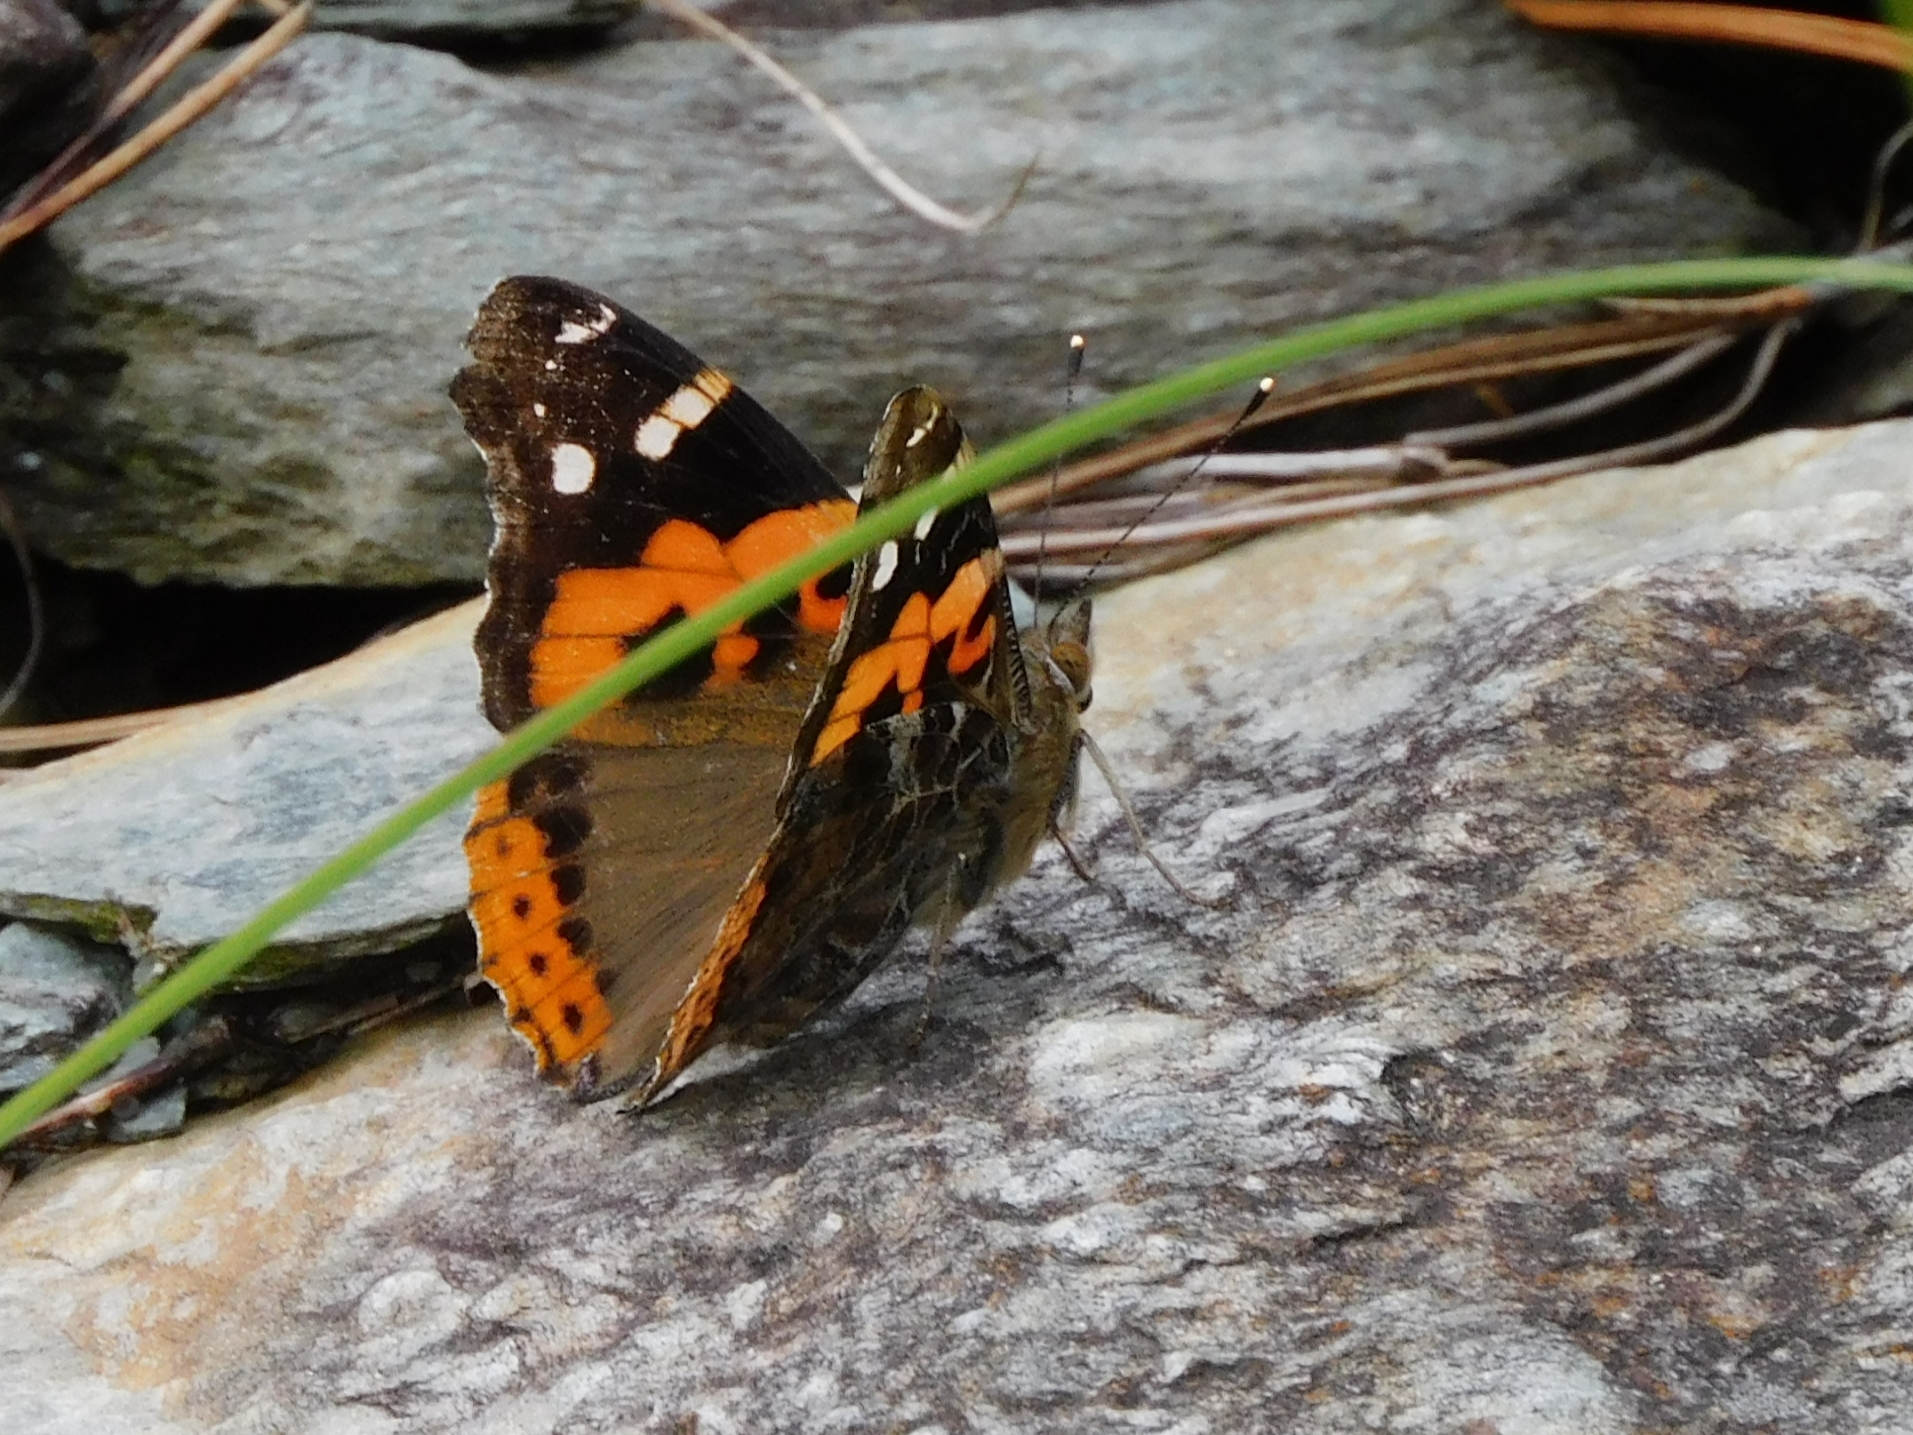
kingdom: Animalia
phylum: Arthropoda
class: Insecta
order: Lepidoptera
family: Nymphalidae
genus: Vanessa
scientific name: Vanessa indica
